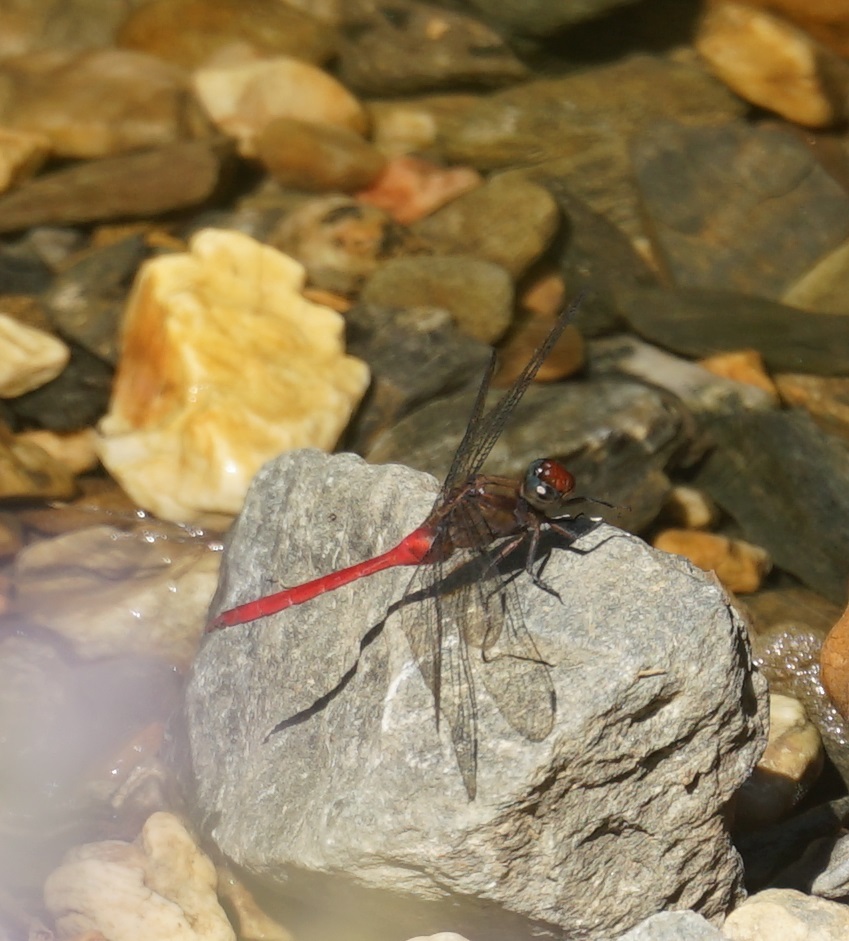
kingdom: Animalia
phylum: Arthropoda
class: Insecta
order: Odonata
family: Libellulidae
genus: Orthetrum
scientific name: Orthetrum villosovittatum
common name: Firery skimmer
